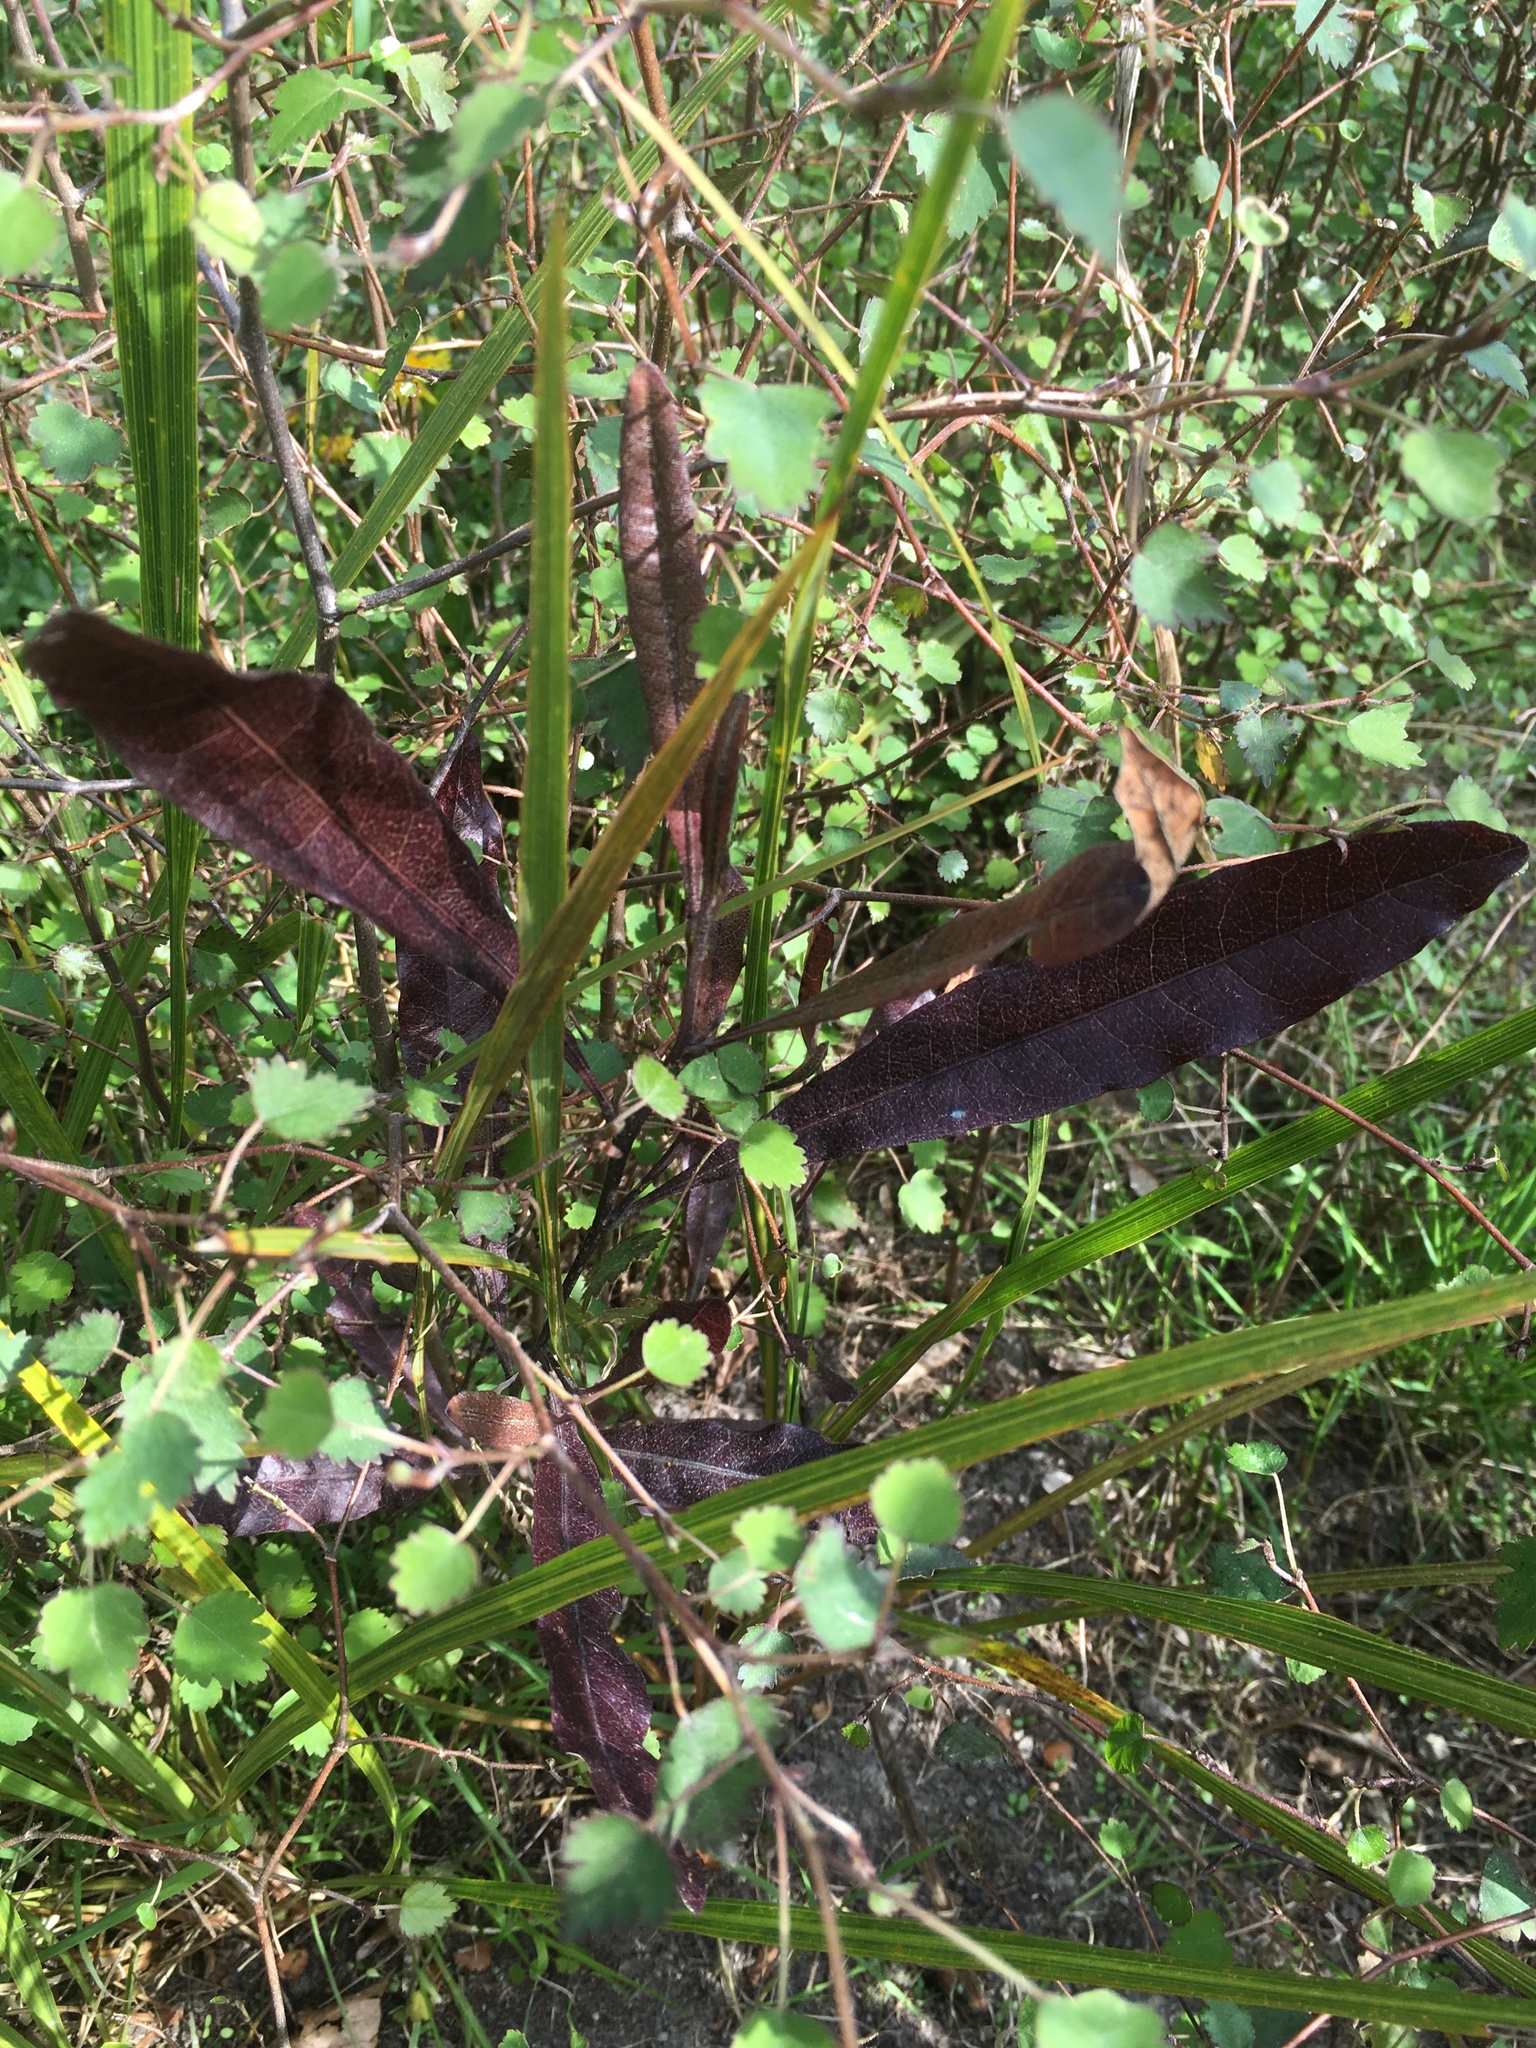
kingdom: Plantae
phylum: Tracheophyta
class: Magnoliopsida
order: Sapindales
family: Sapindaceae
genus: Dodonaea
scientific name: Dodonaea viscosa
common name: Hopbush
